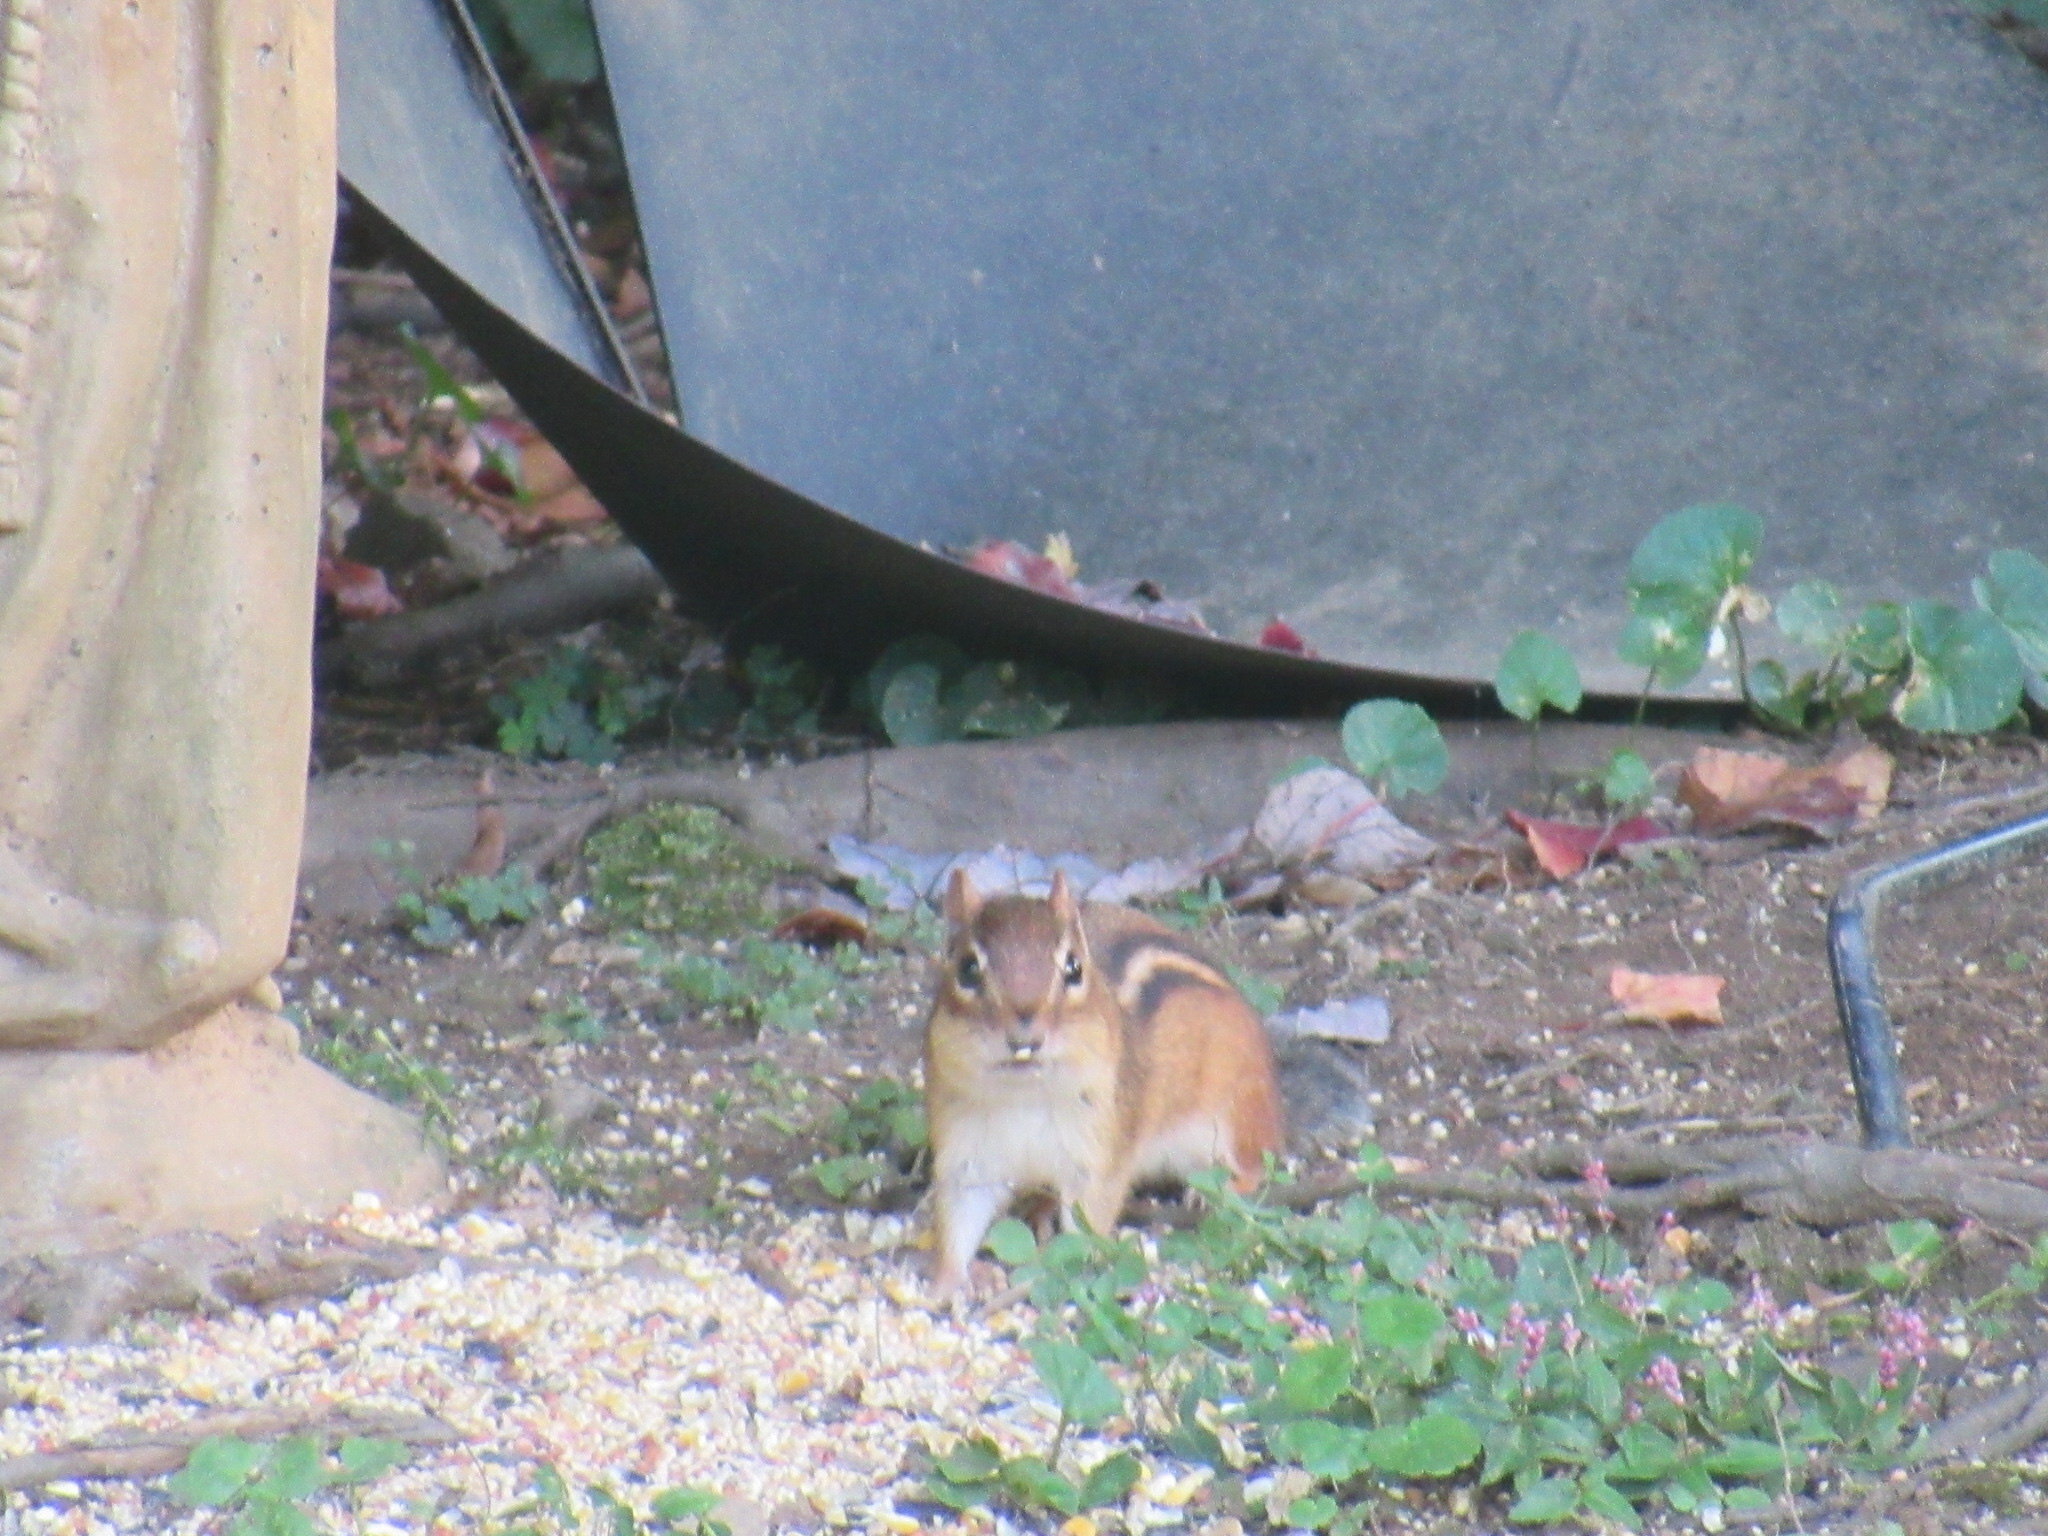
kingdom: Animalia
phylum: Chordata
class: Mammalia
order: Rodentia
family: Sciuridae
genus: Tamias
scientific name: Tamias striatus
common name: Eastern chipmunk
